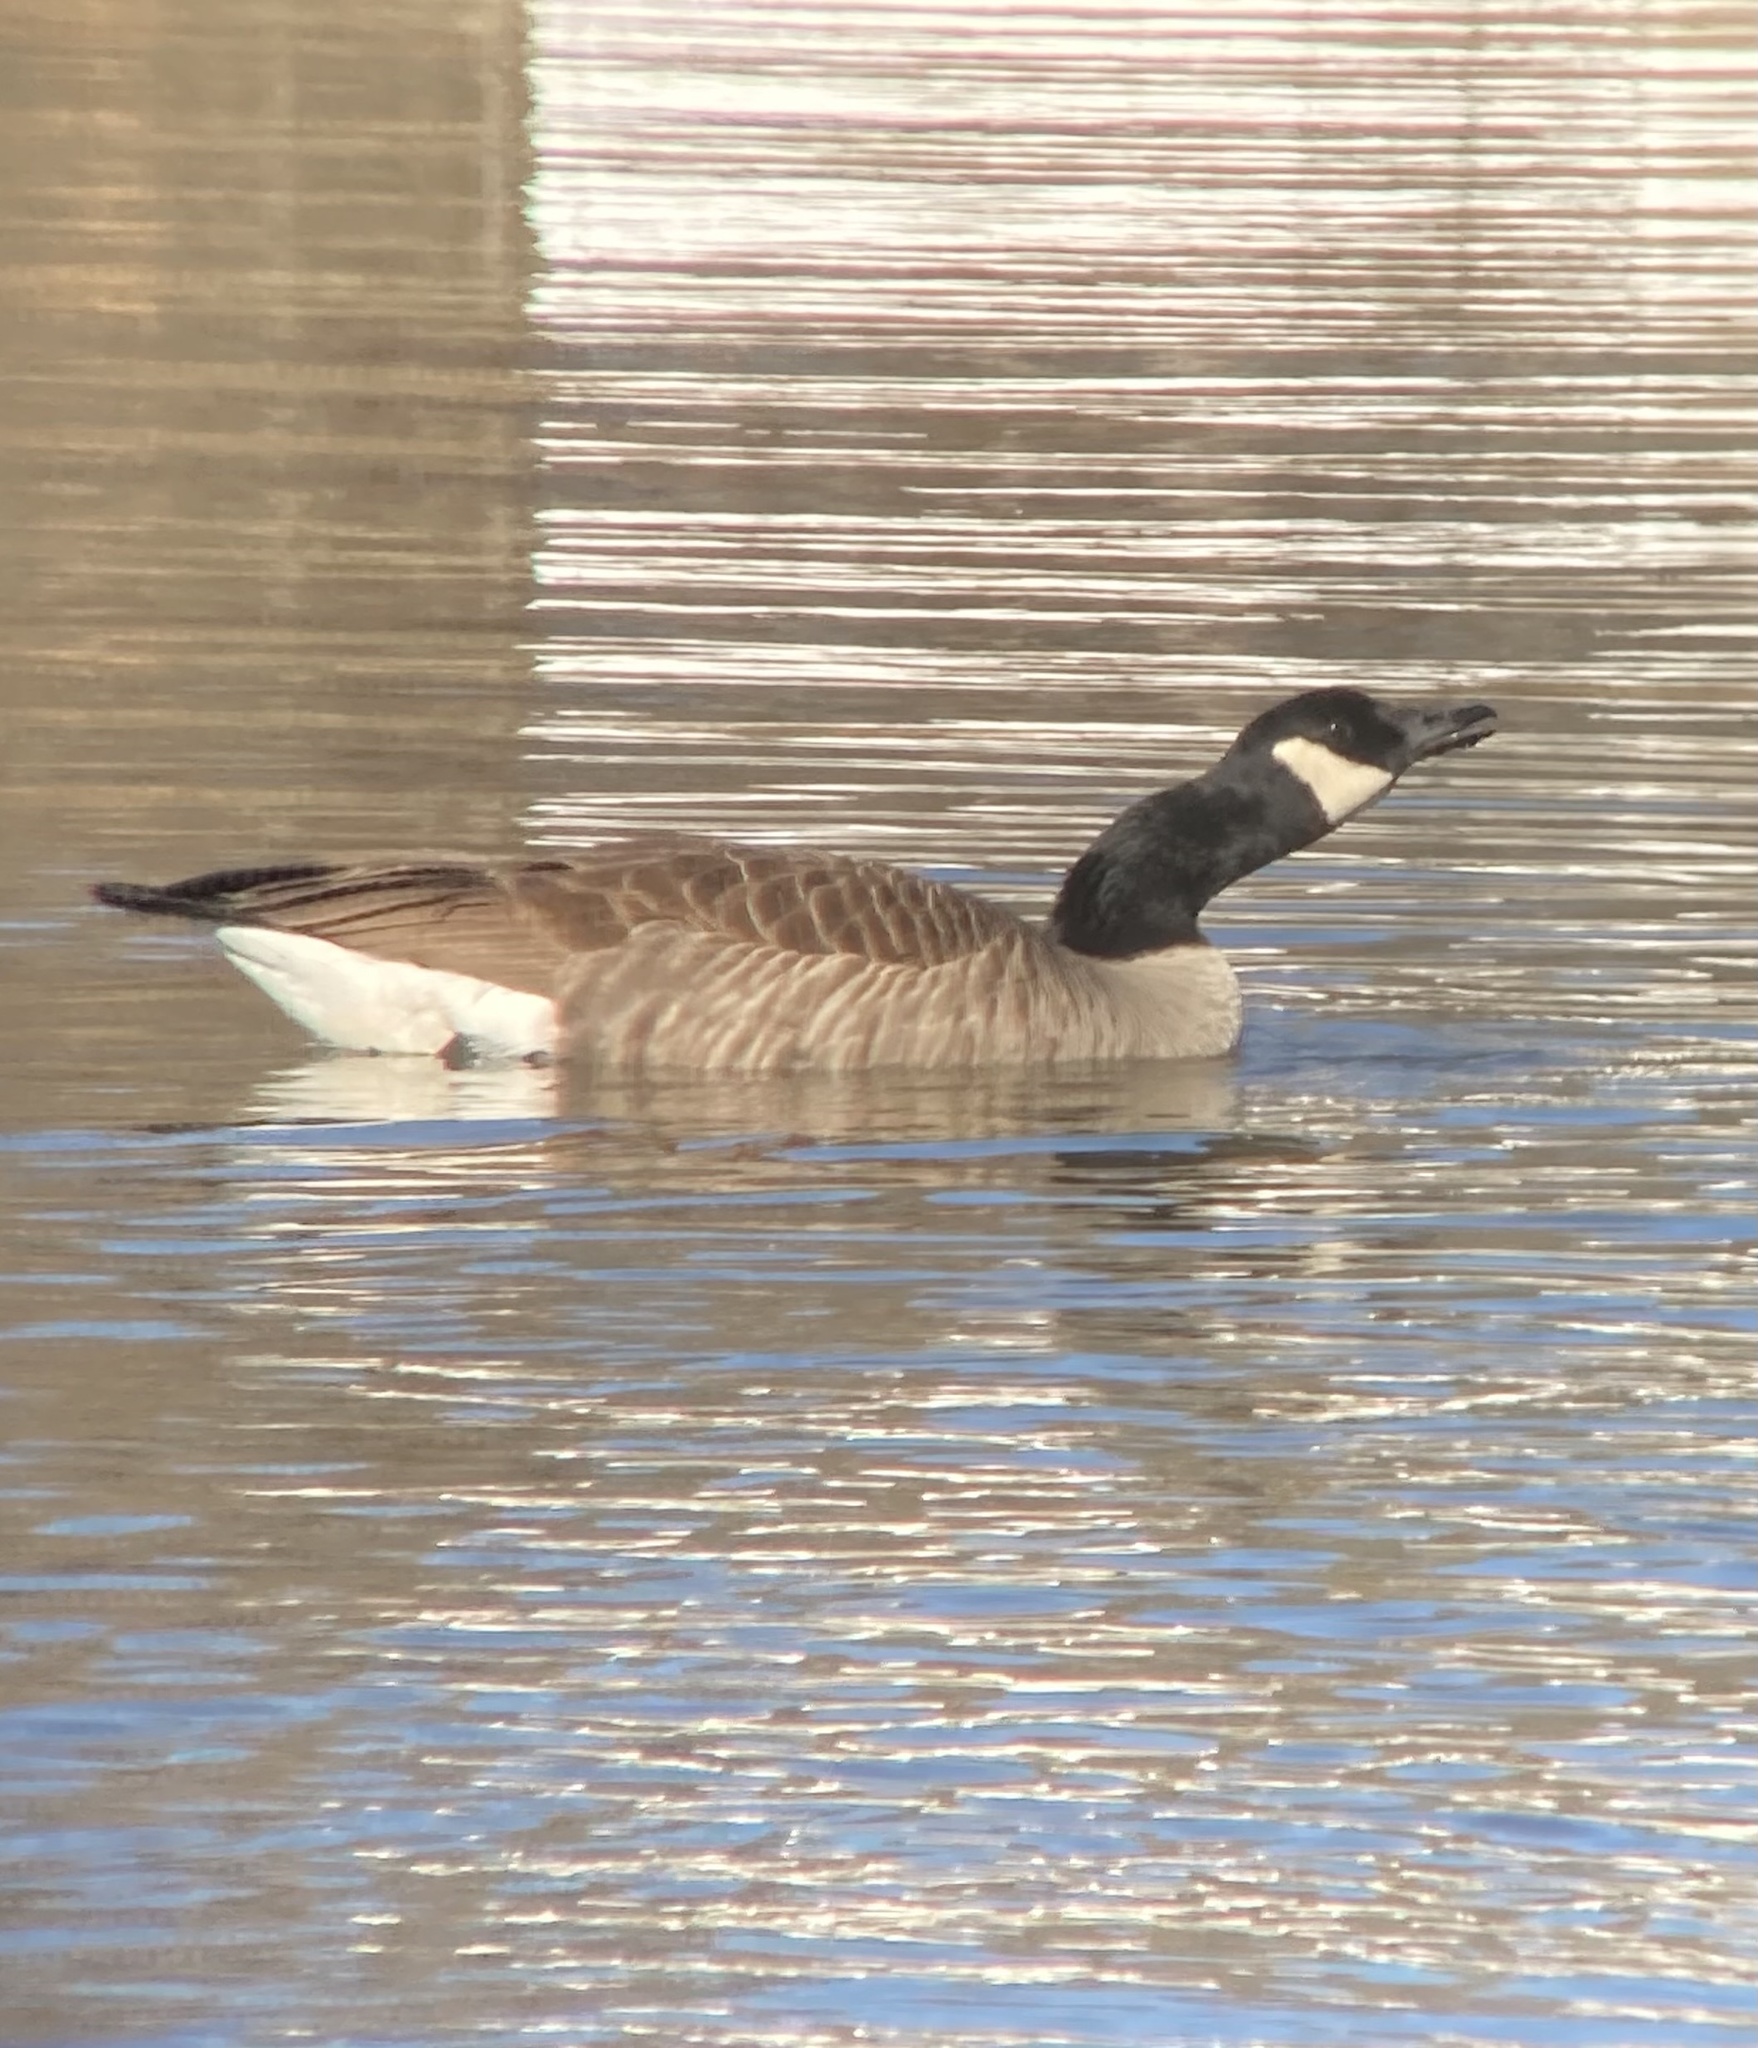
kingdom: Animalia
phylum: Chordata
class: Aves
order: Anseriformes
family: Anatidae
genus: Branta
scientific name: Branta canadensis
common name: Canada goose
